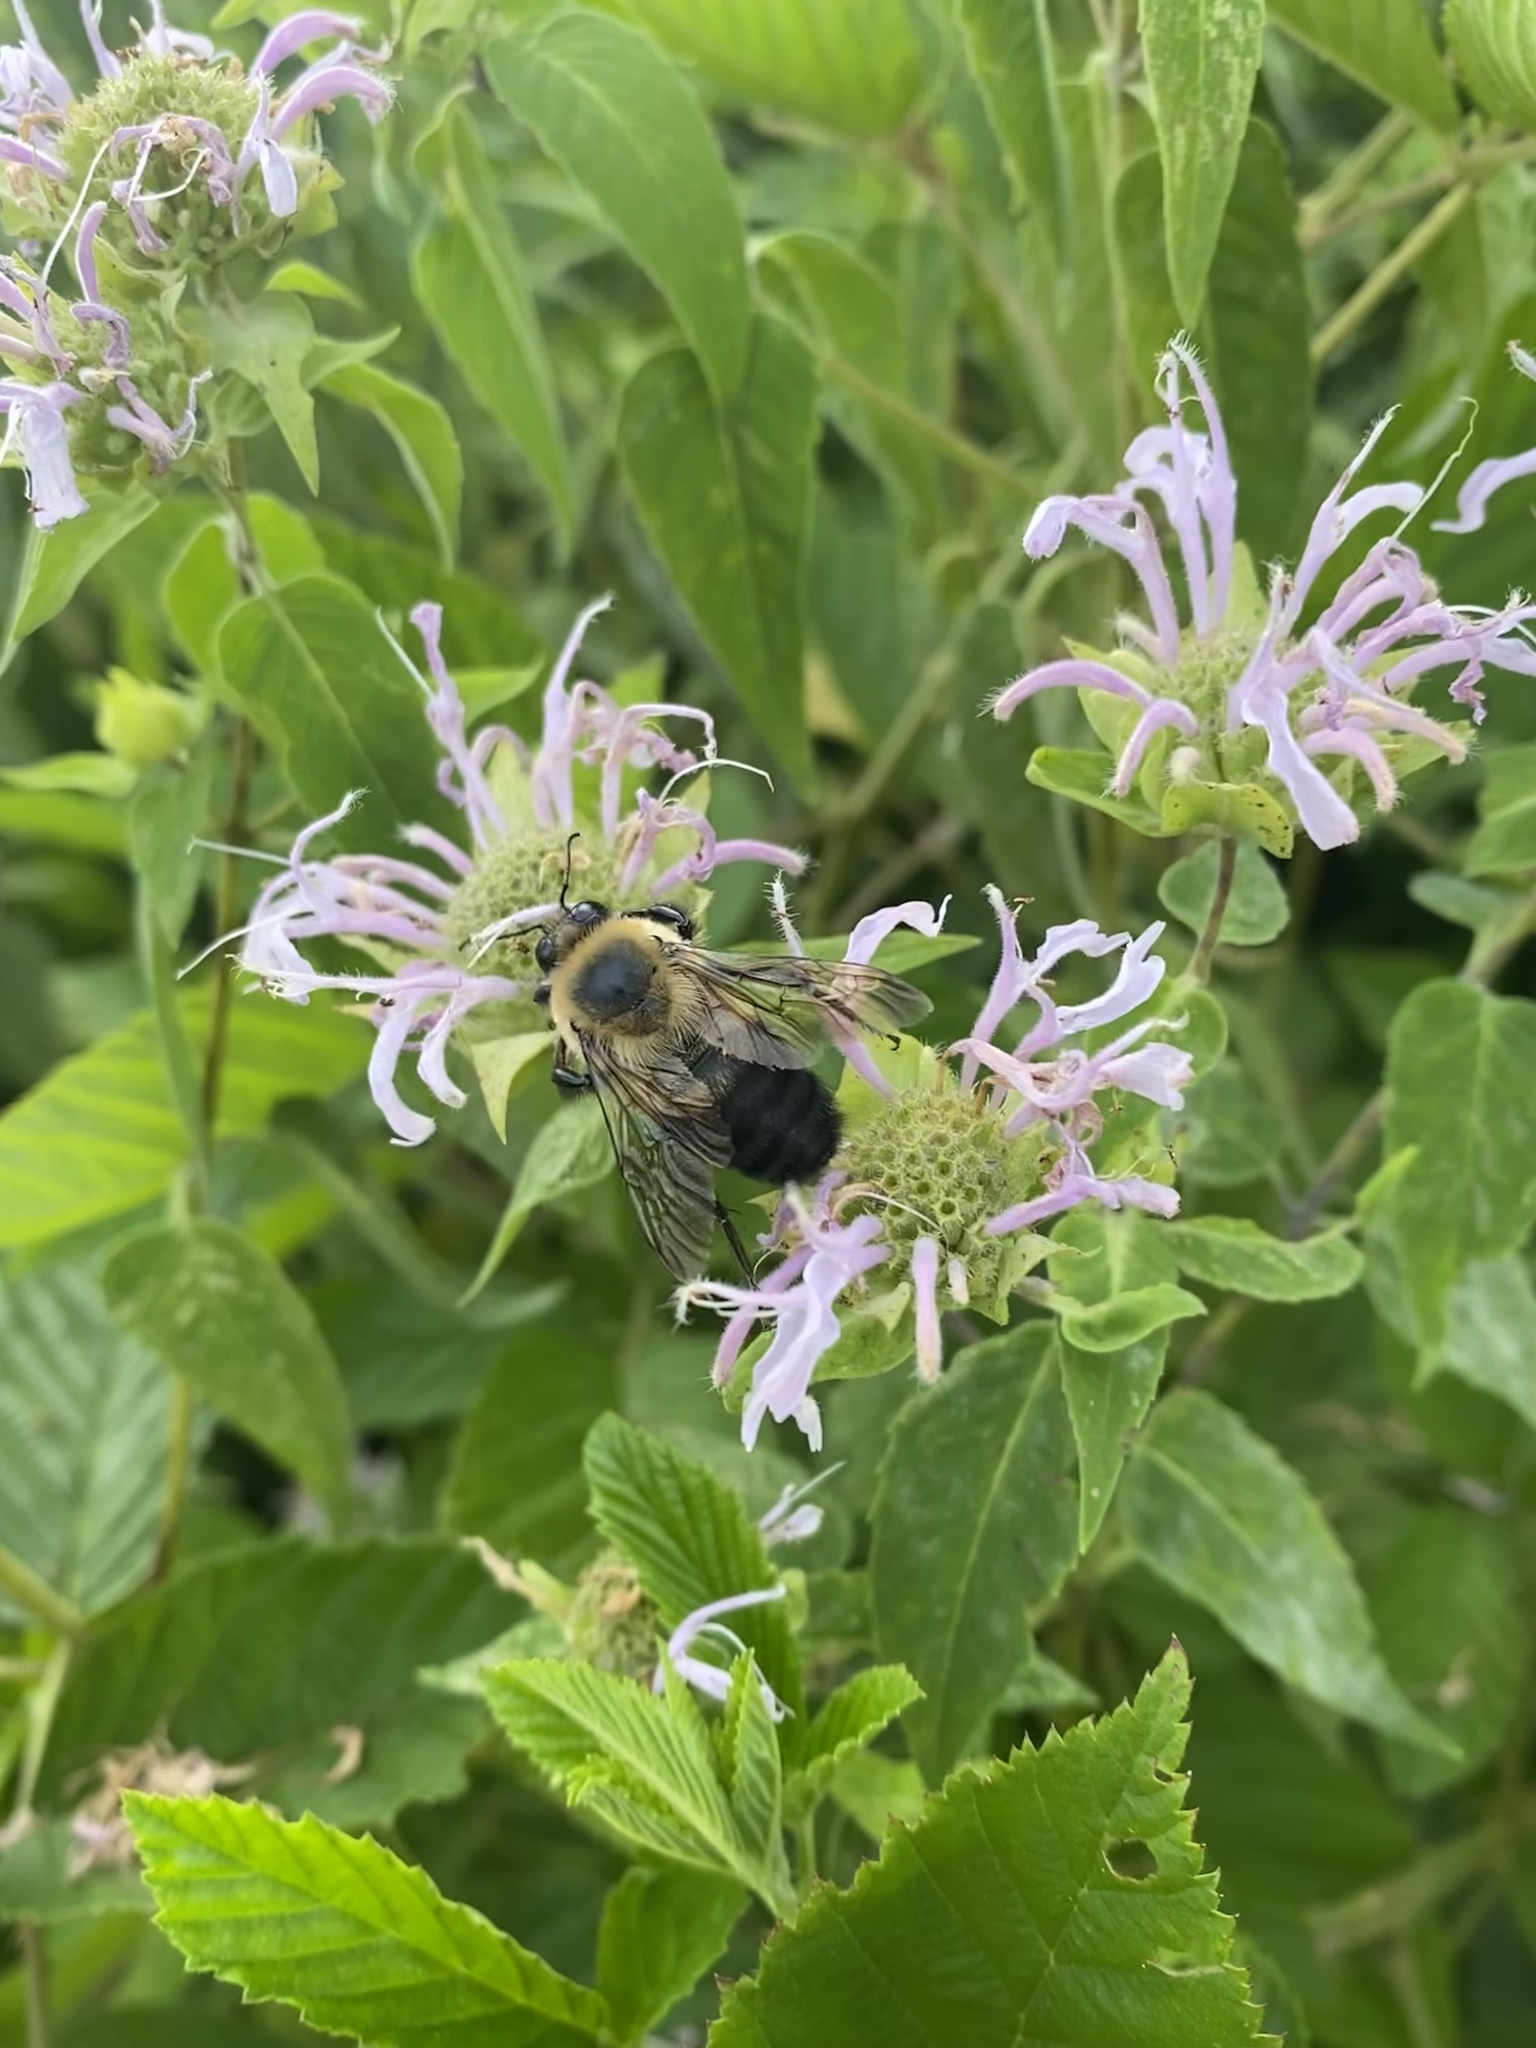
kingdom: Animalia
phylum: Arthropoda
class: Insecta
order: Hymenoptera
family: Apidae
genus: Bombus
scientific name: Bombus griseocollis
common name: Brown-belted bumble bee
